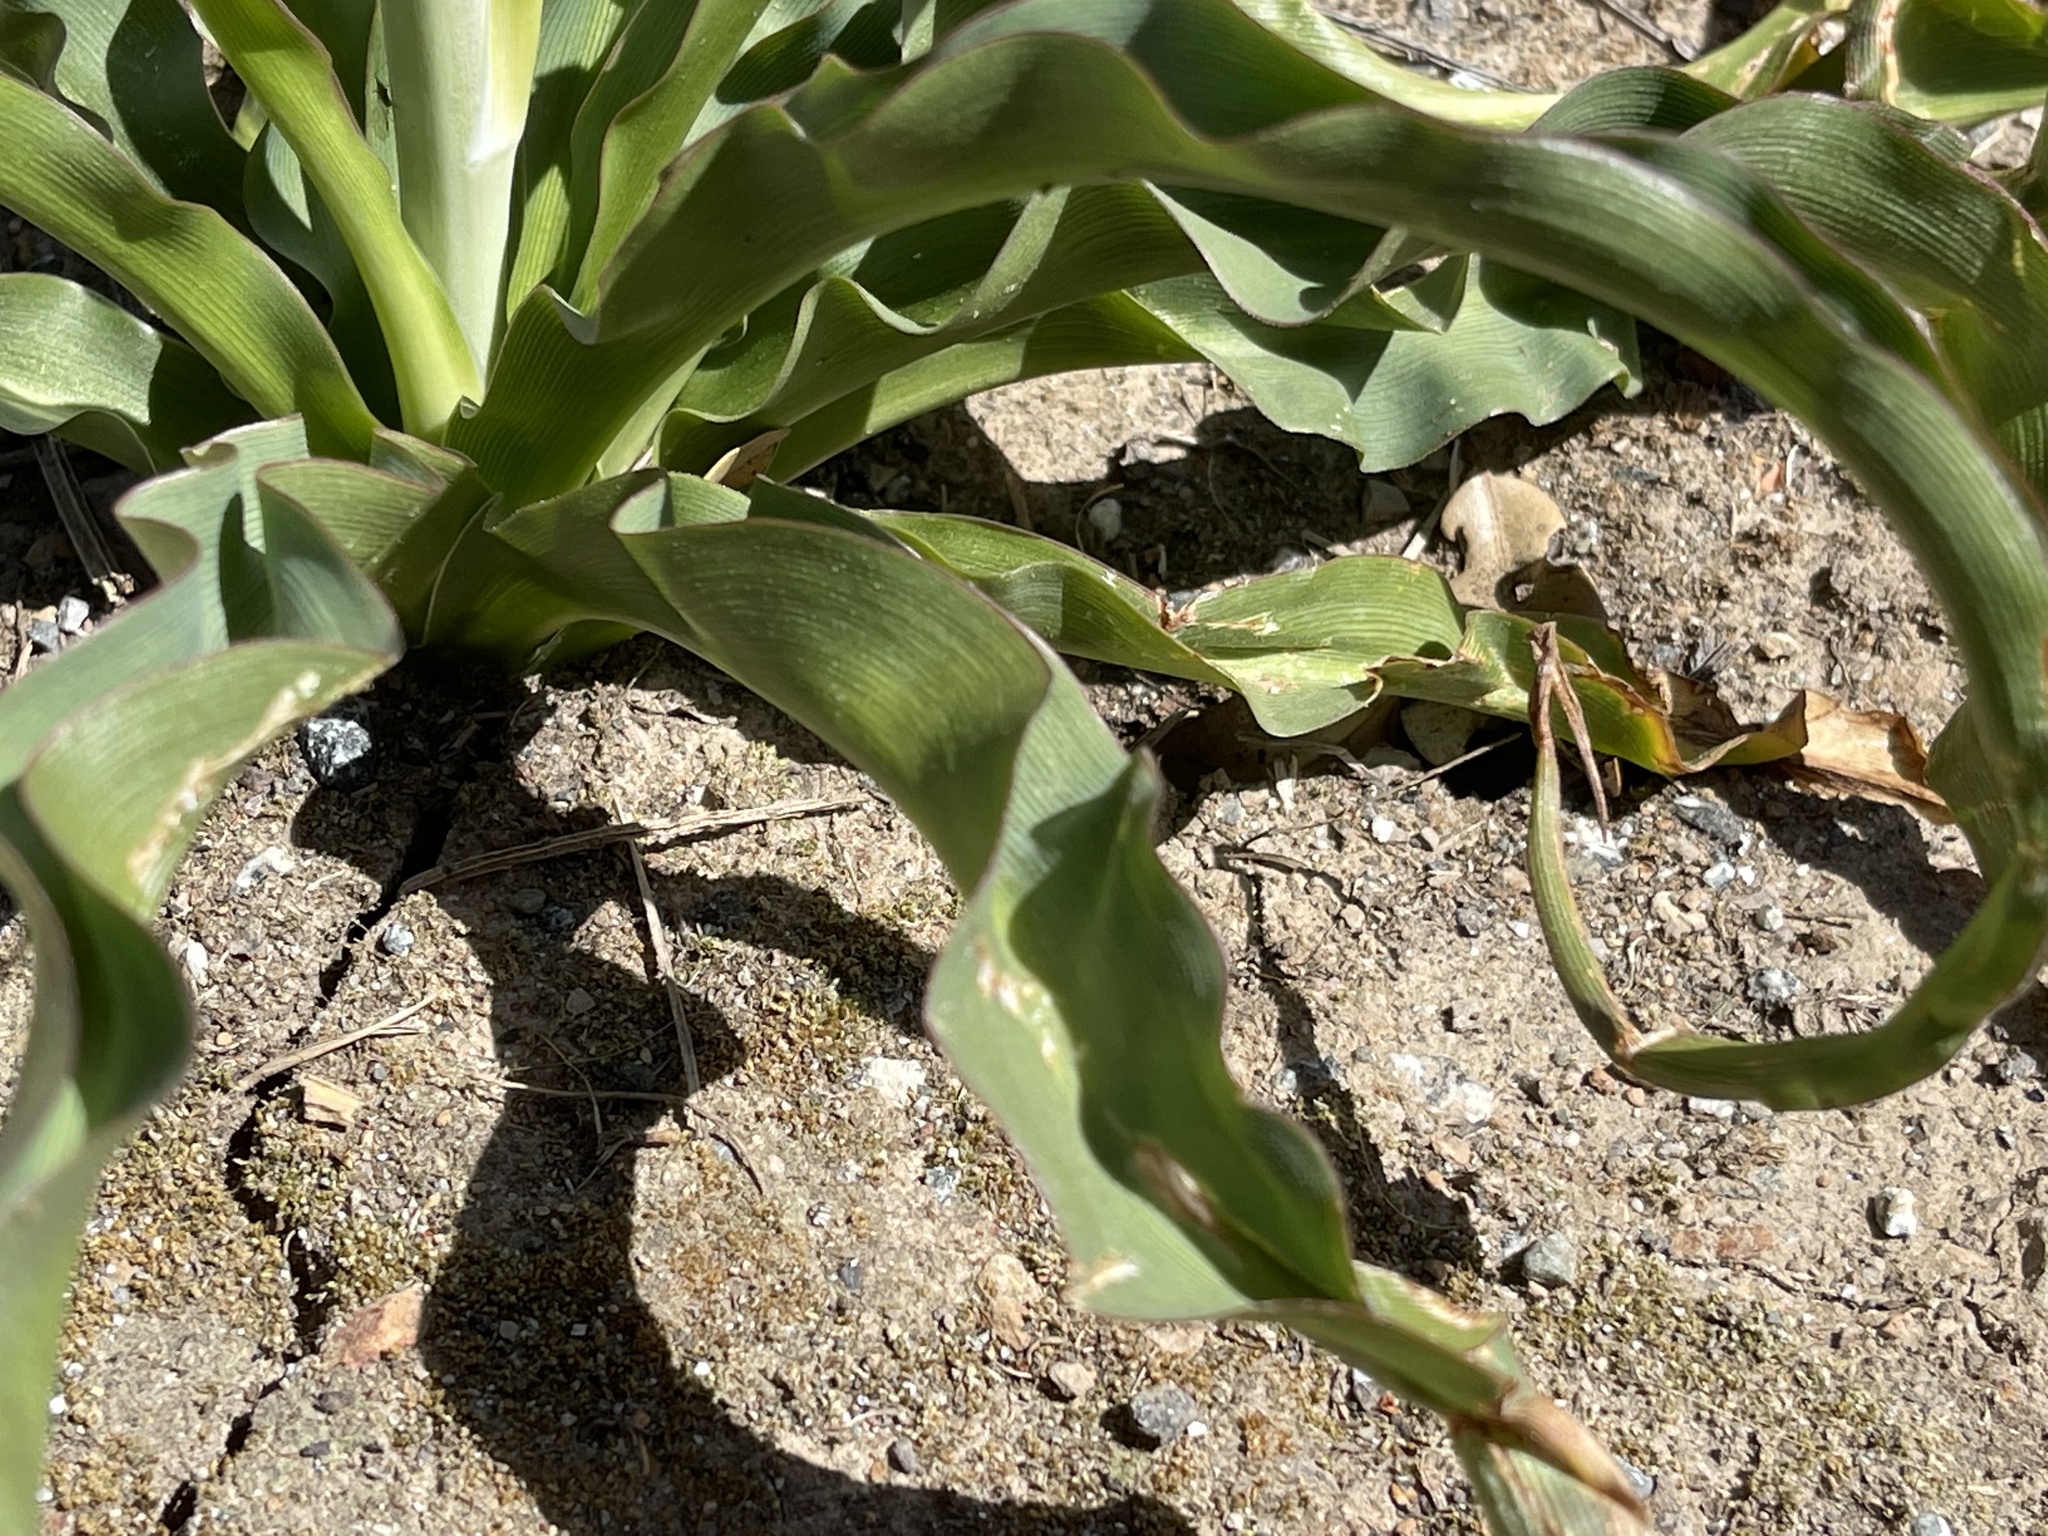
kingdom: Plantae
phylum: Tracheophyta
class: Liliopsida
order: Asparagales
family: Asparagaceae
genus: Chlorogalum
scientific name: Chlorogalum pomeridianum
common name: Amole
